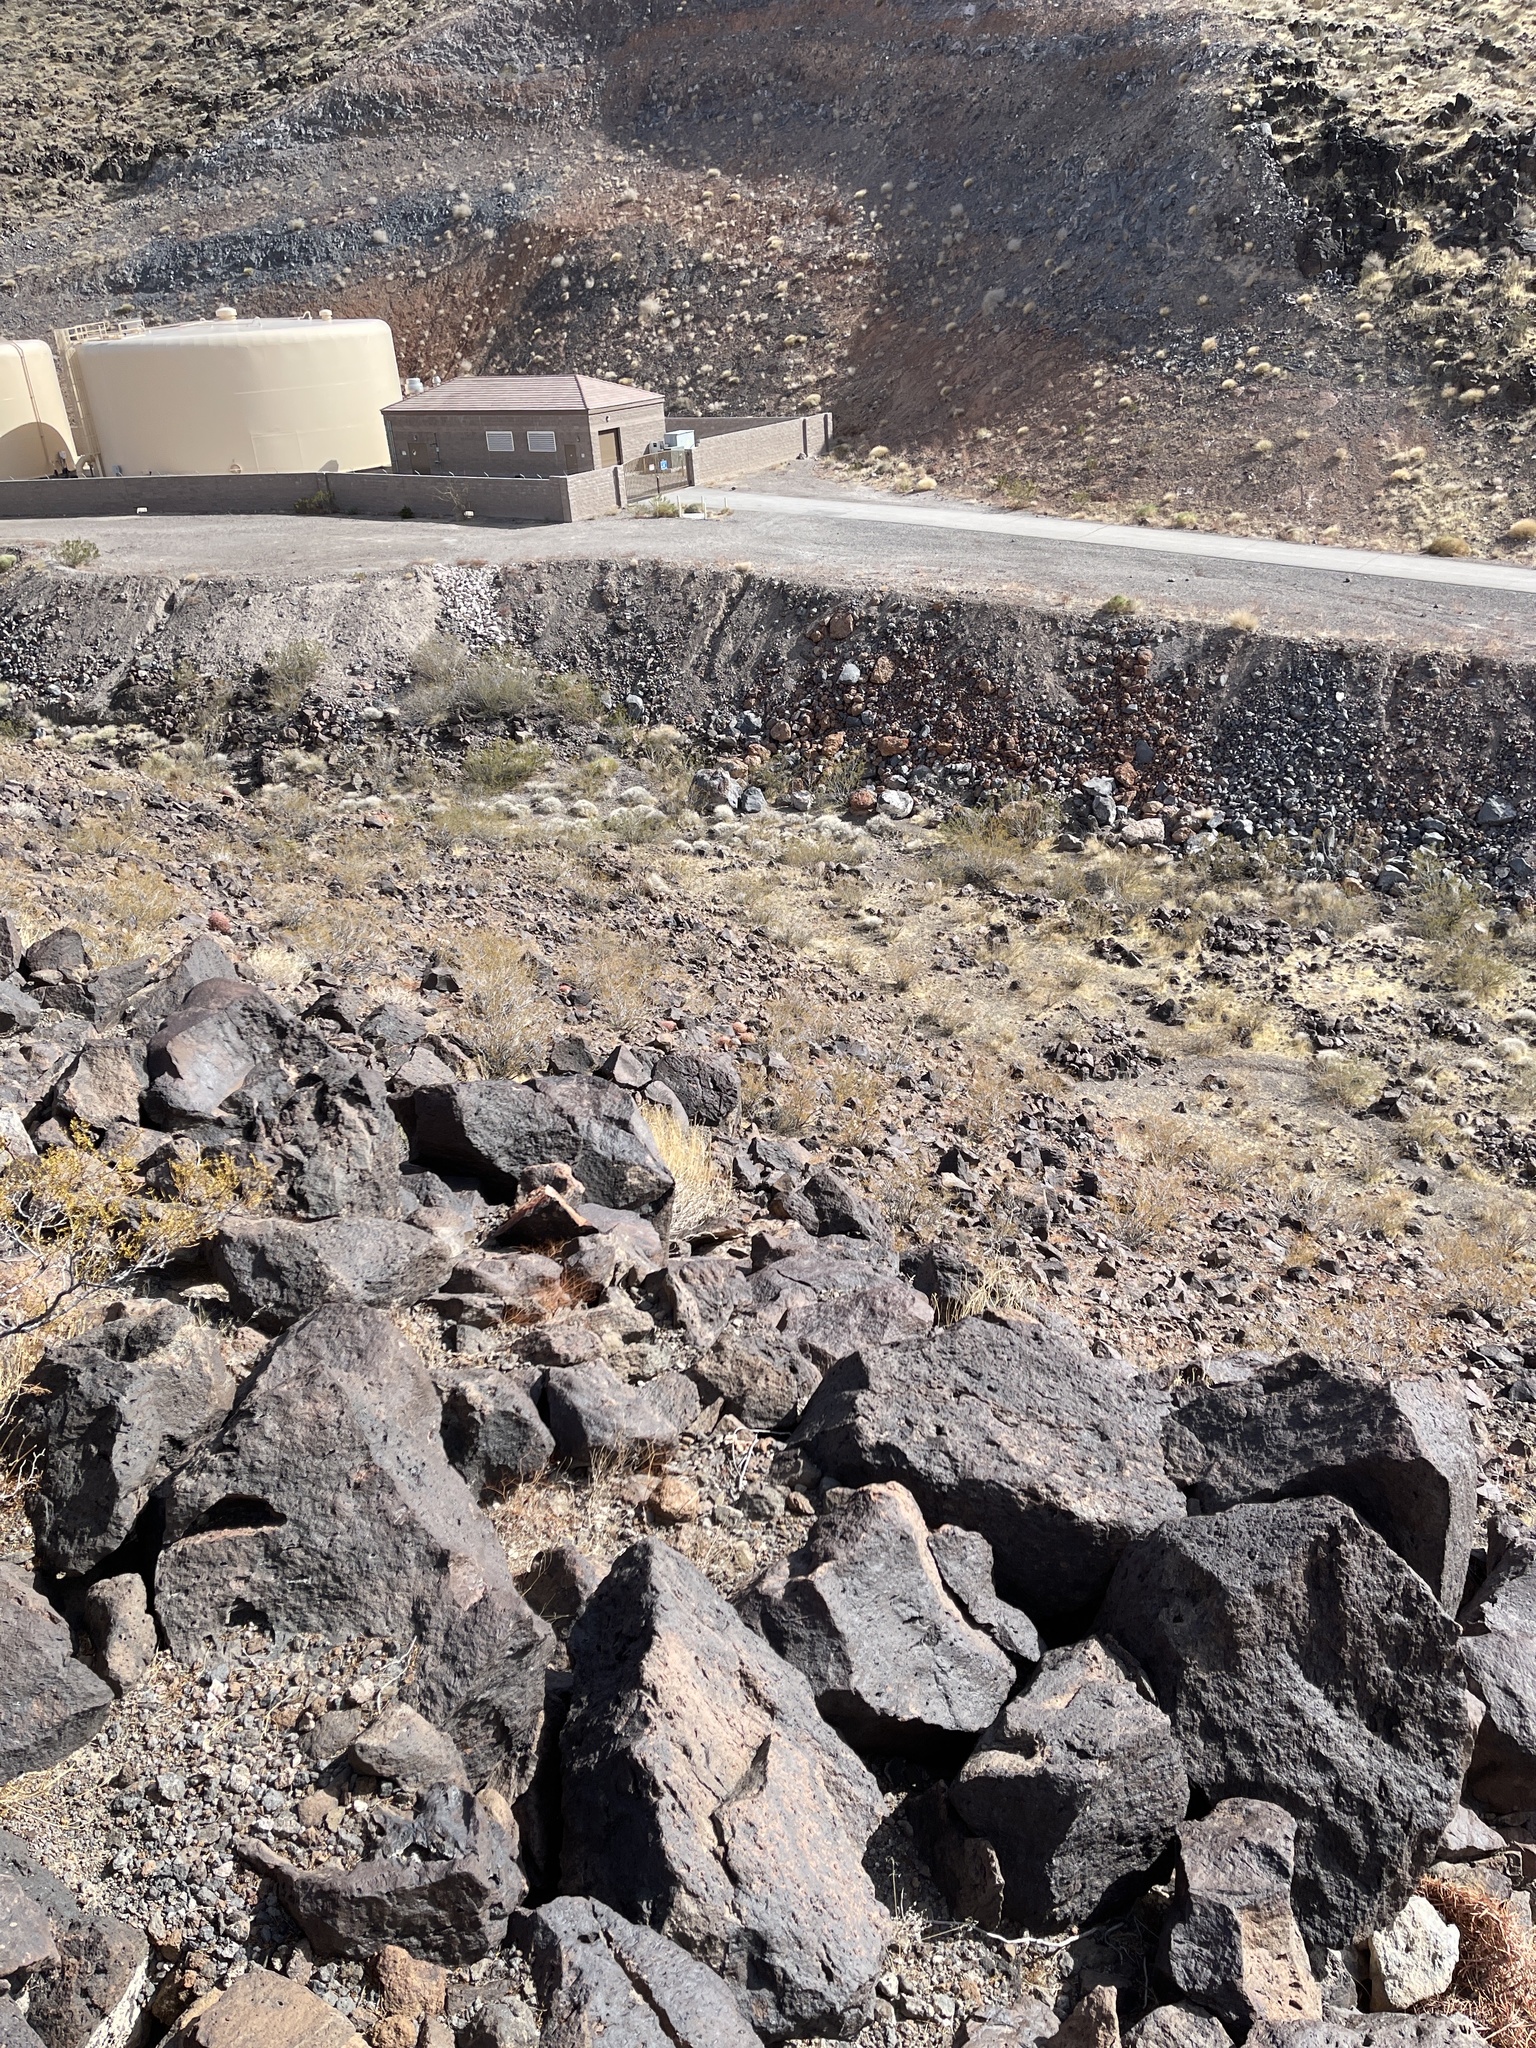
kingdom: Plantae
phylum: Tracheophyta
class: Magnoliopsida
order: Caryophyllales
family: Cactaceae
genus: Ferocactus
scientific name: Ferocactus cylindraceus
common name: California barrel cactus
